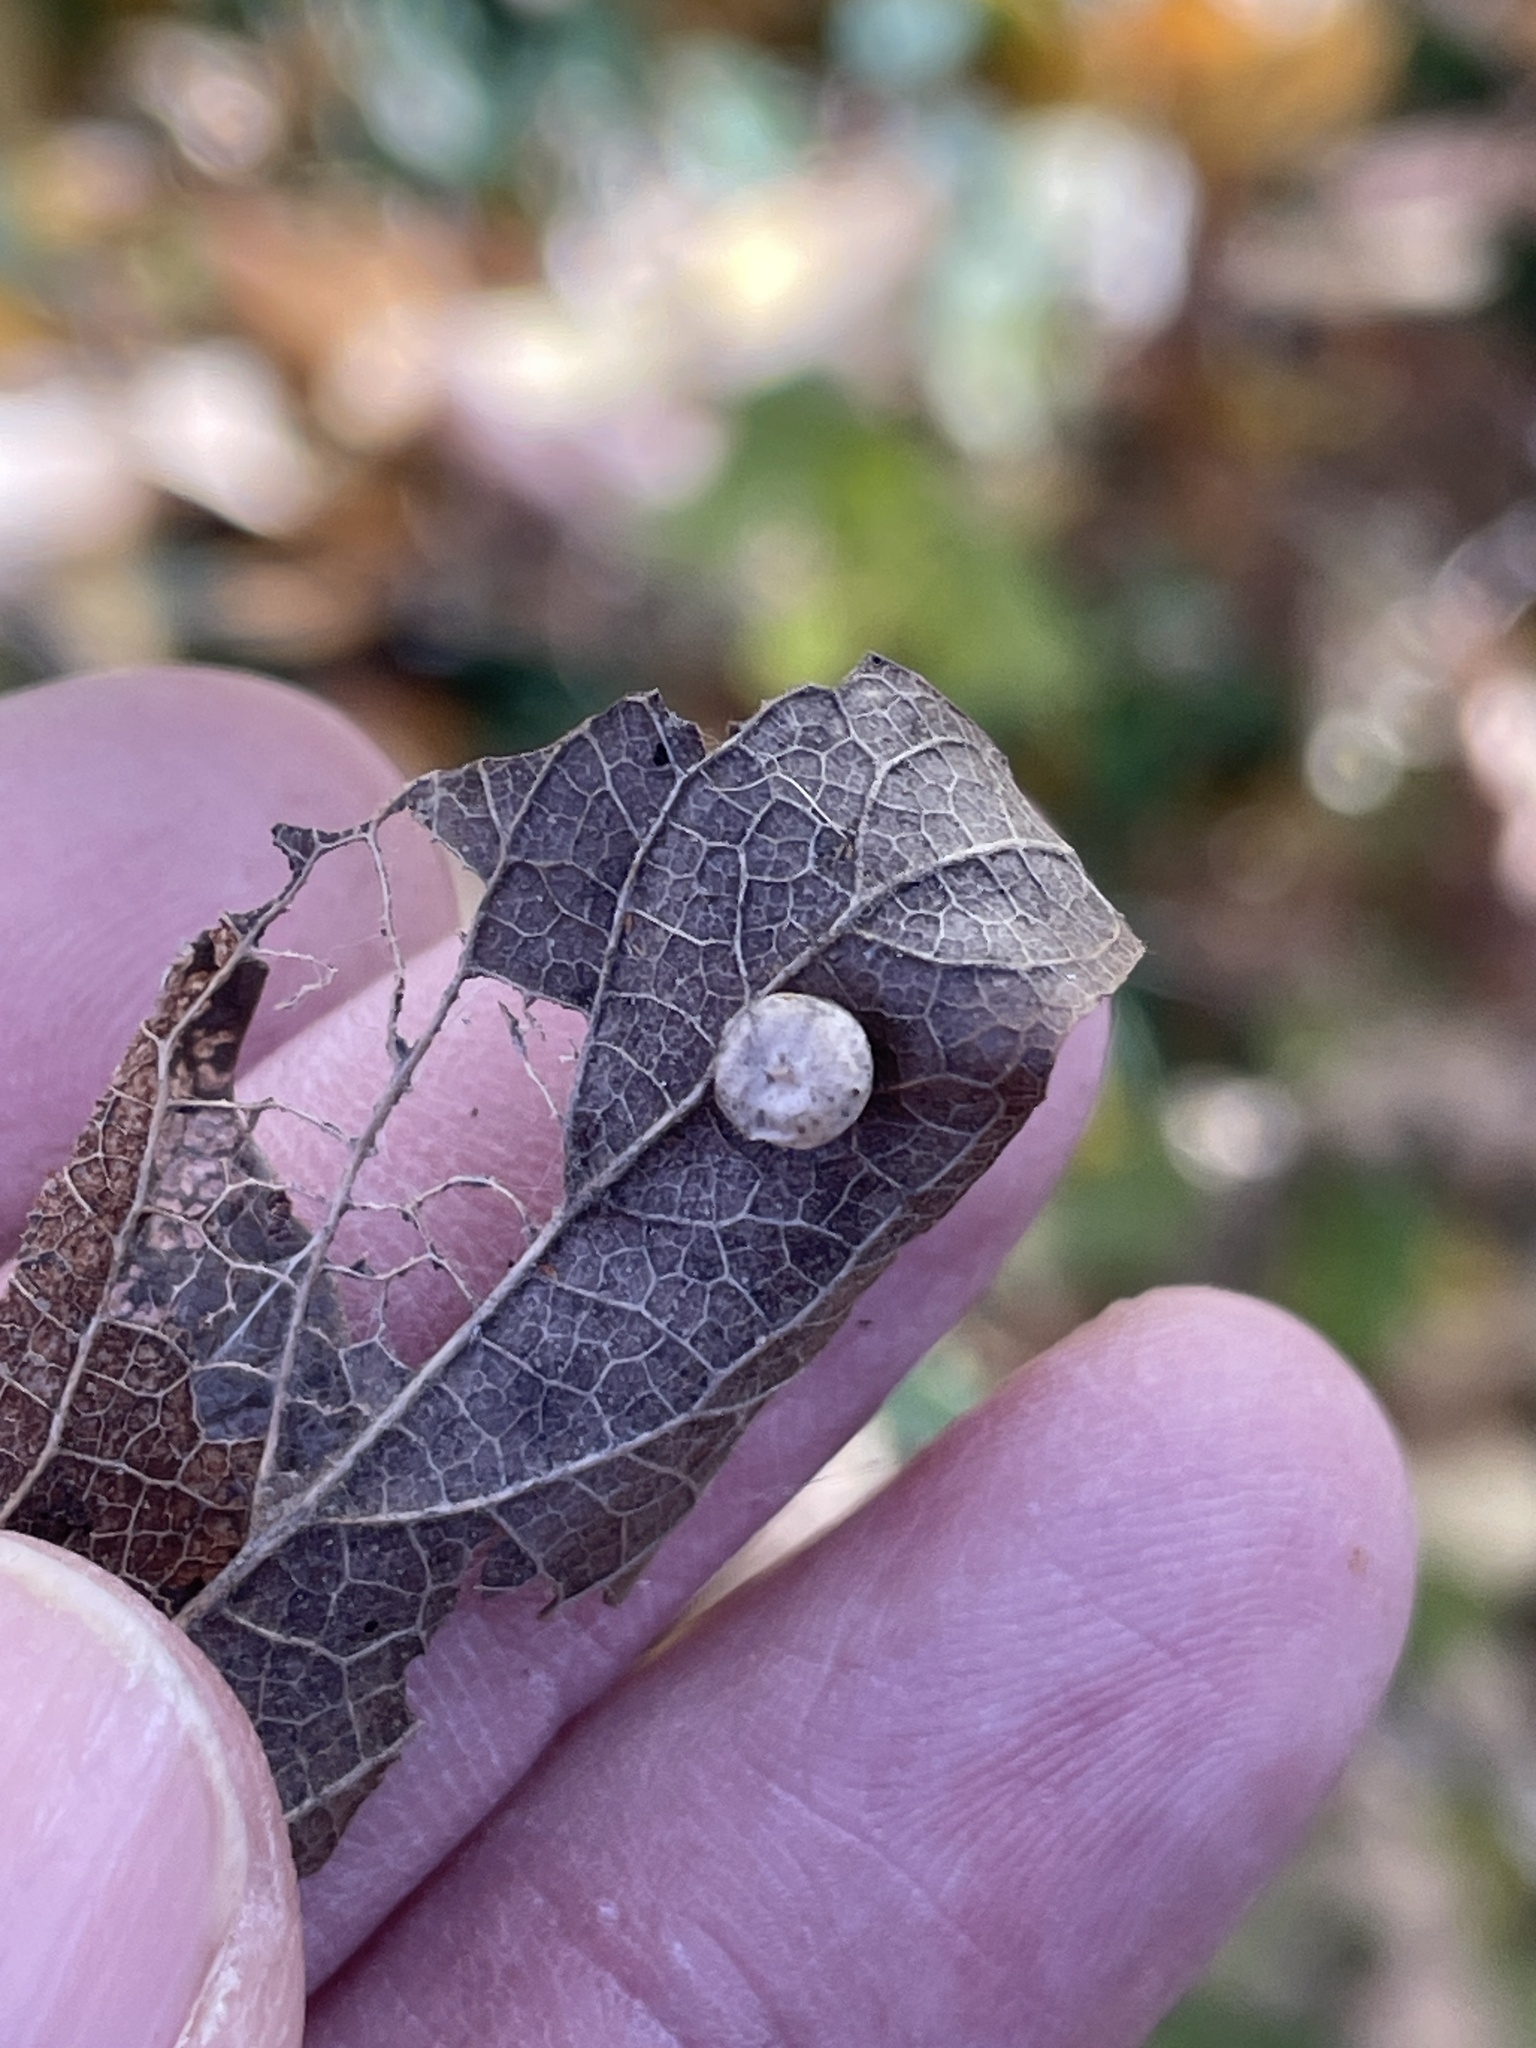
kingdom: Animalia
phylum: Arthropoda
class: Insecta
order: Hemiptera
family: Aphalaridae
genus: Pachypsylla
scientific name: Pachypsylla celtidismamma
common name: Hackberry nipplegall psyllid
